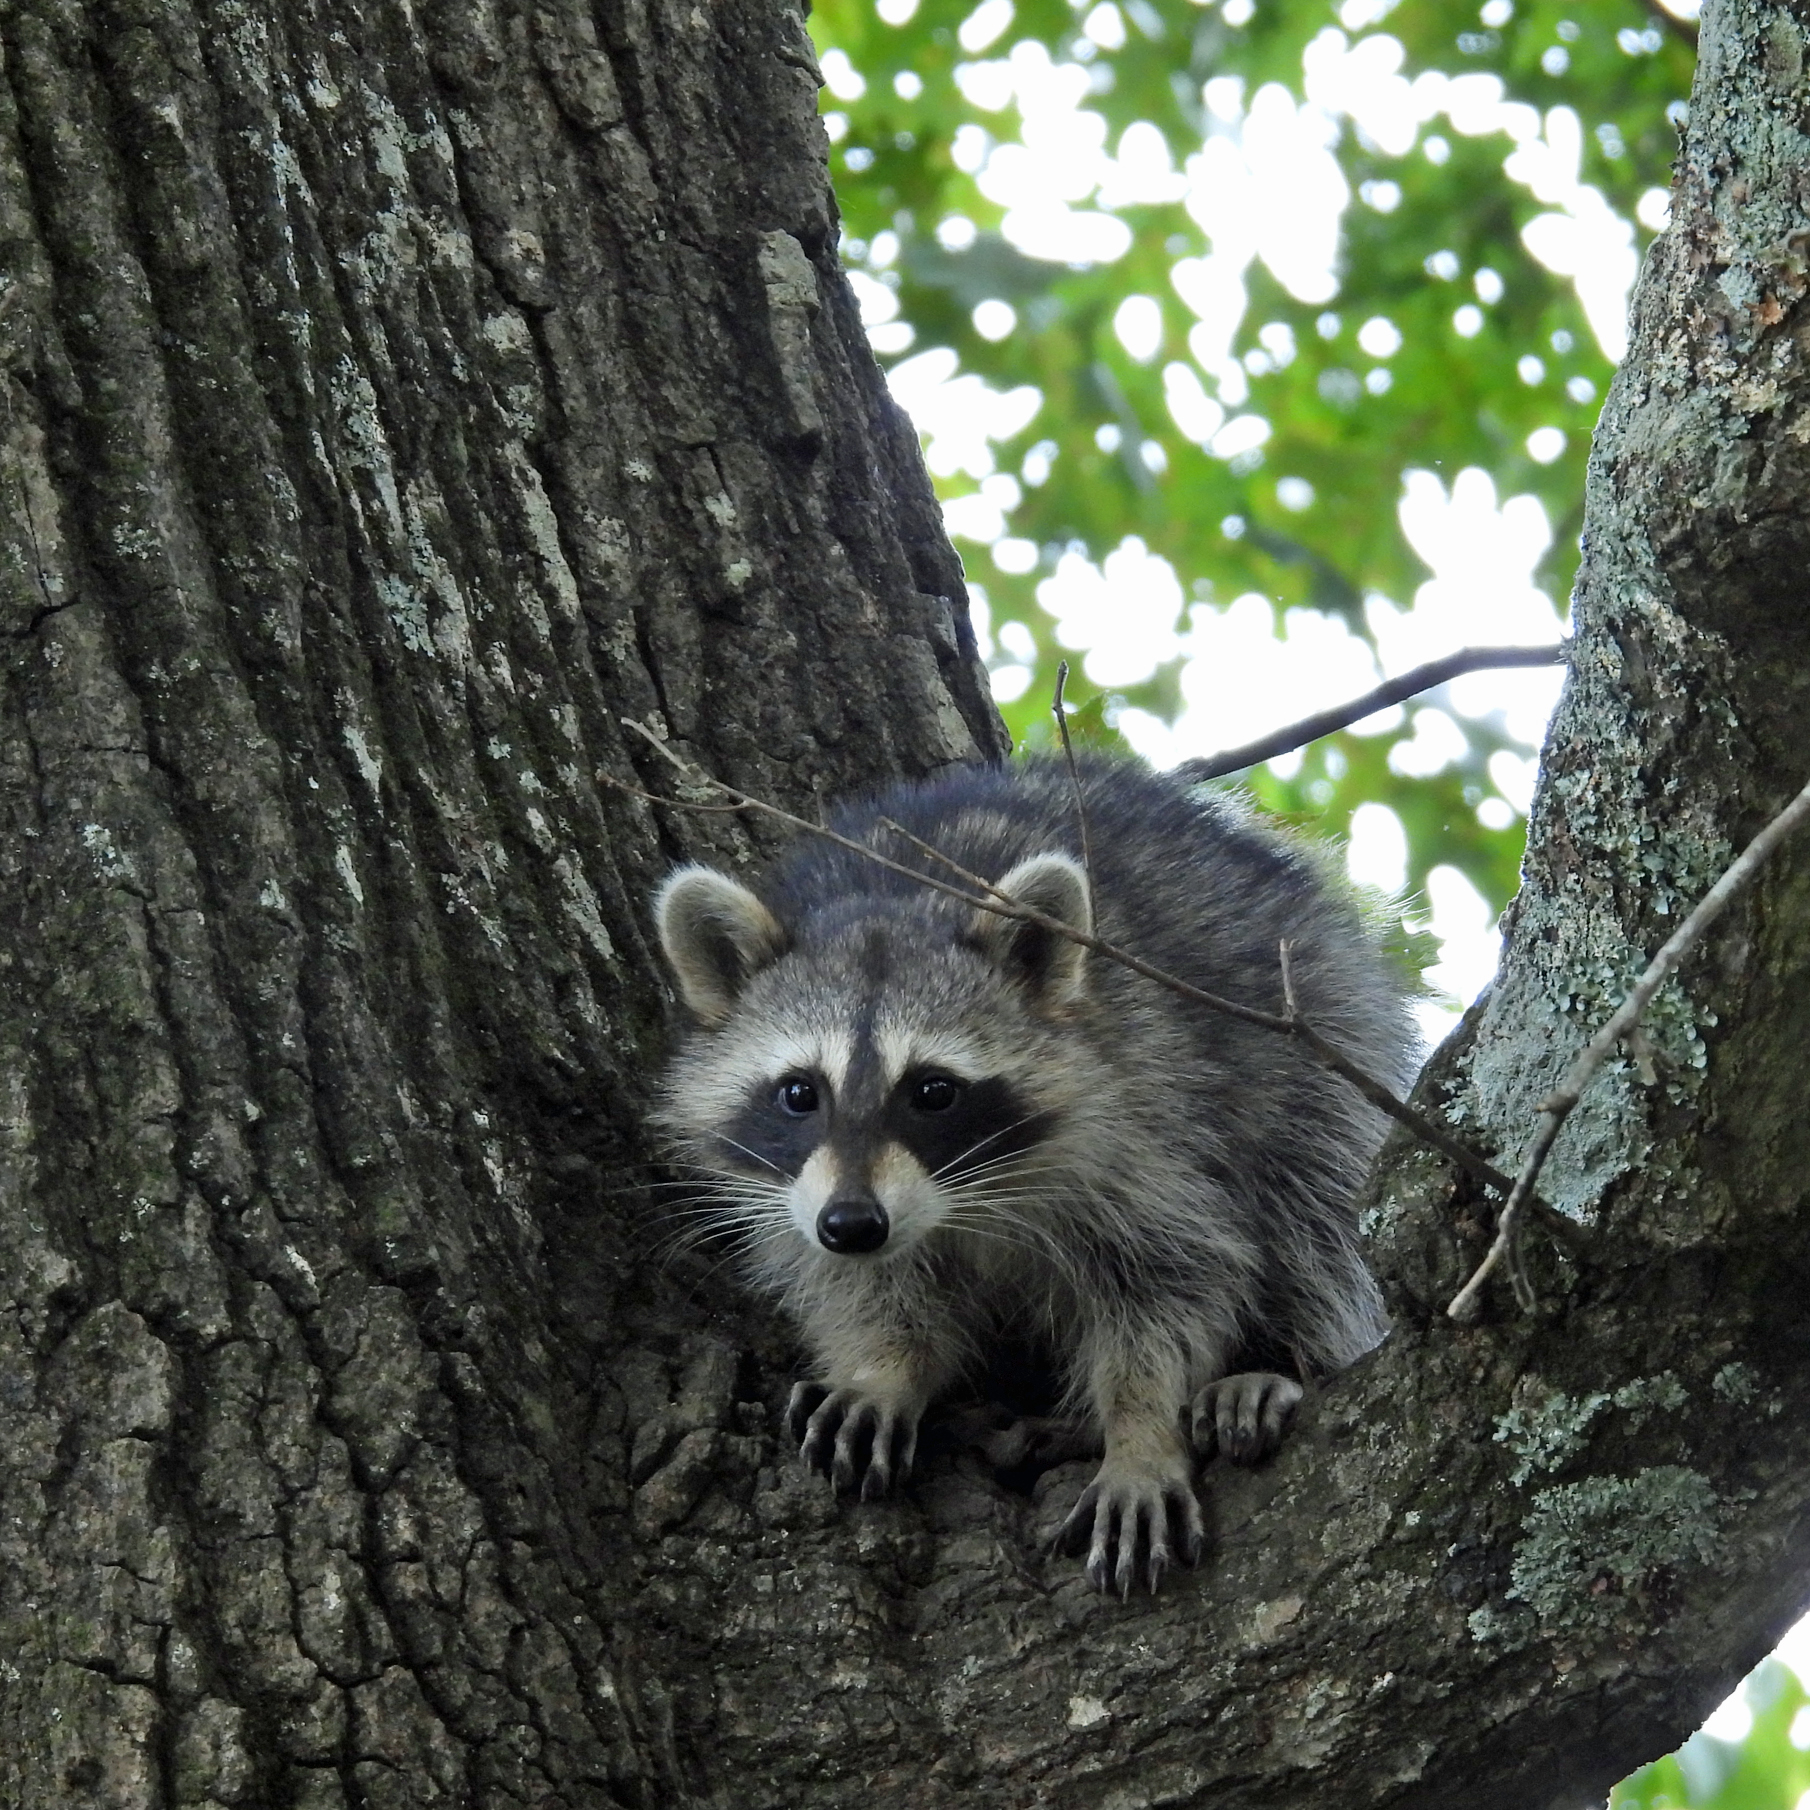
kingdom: Animalia
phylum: Chordata
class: Mammalia
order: Carnivora
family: Procyonidae
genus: Procyon
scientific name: Procyon lotor
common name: Raccoon
